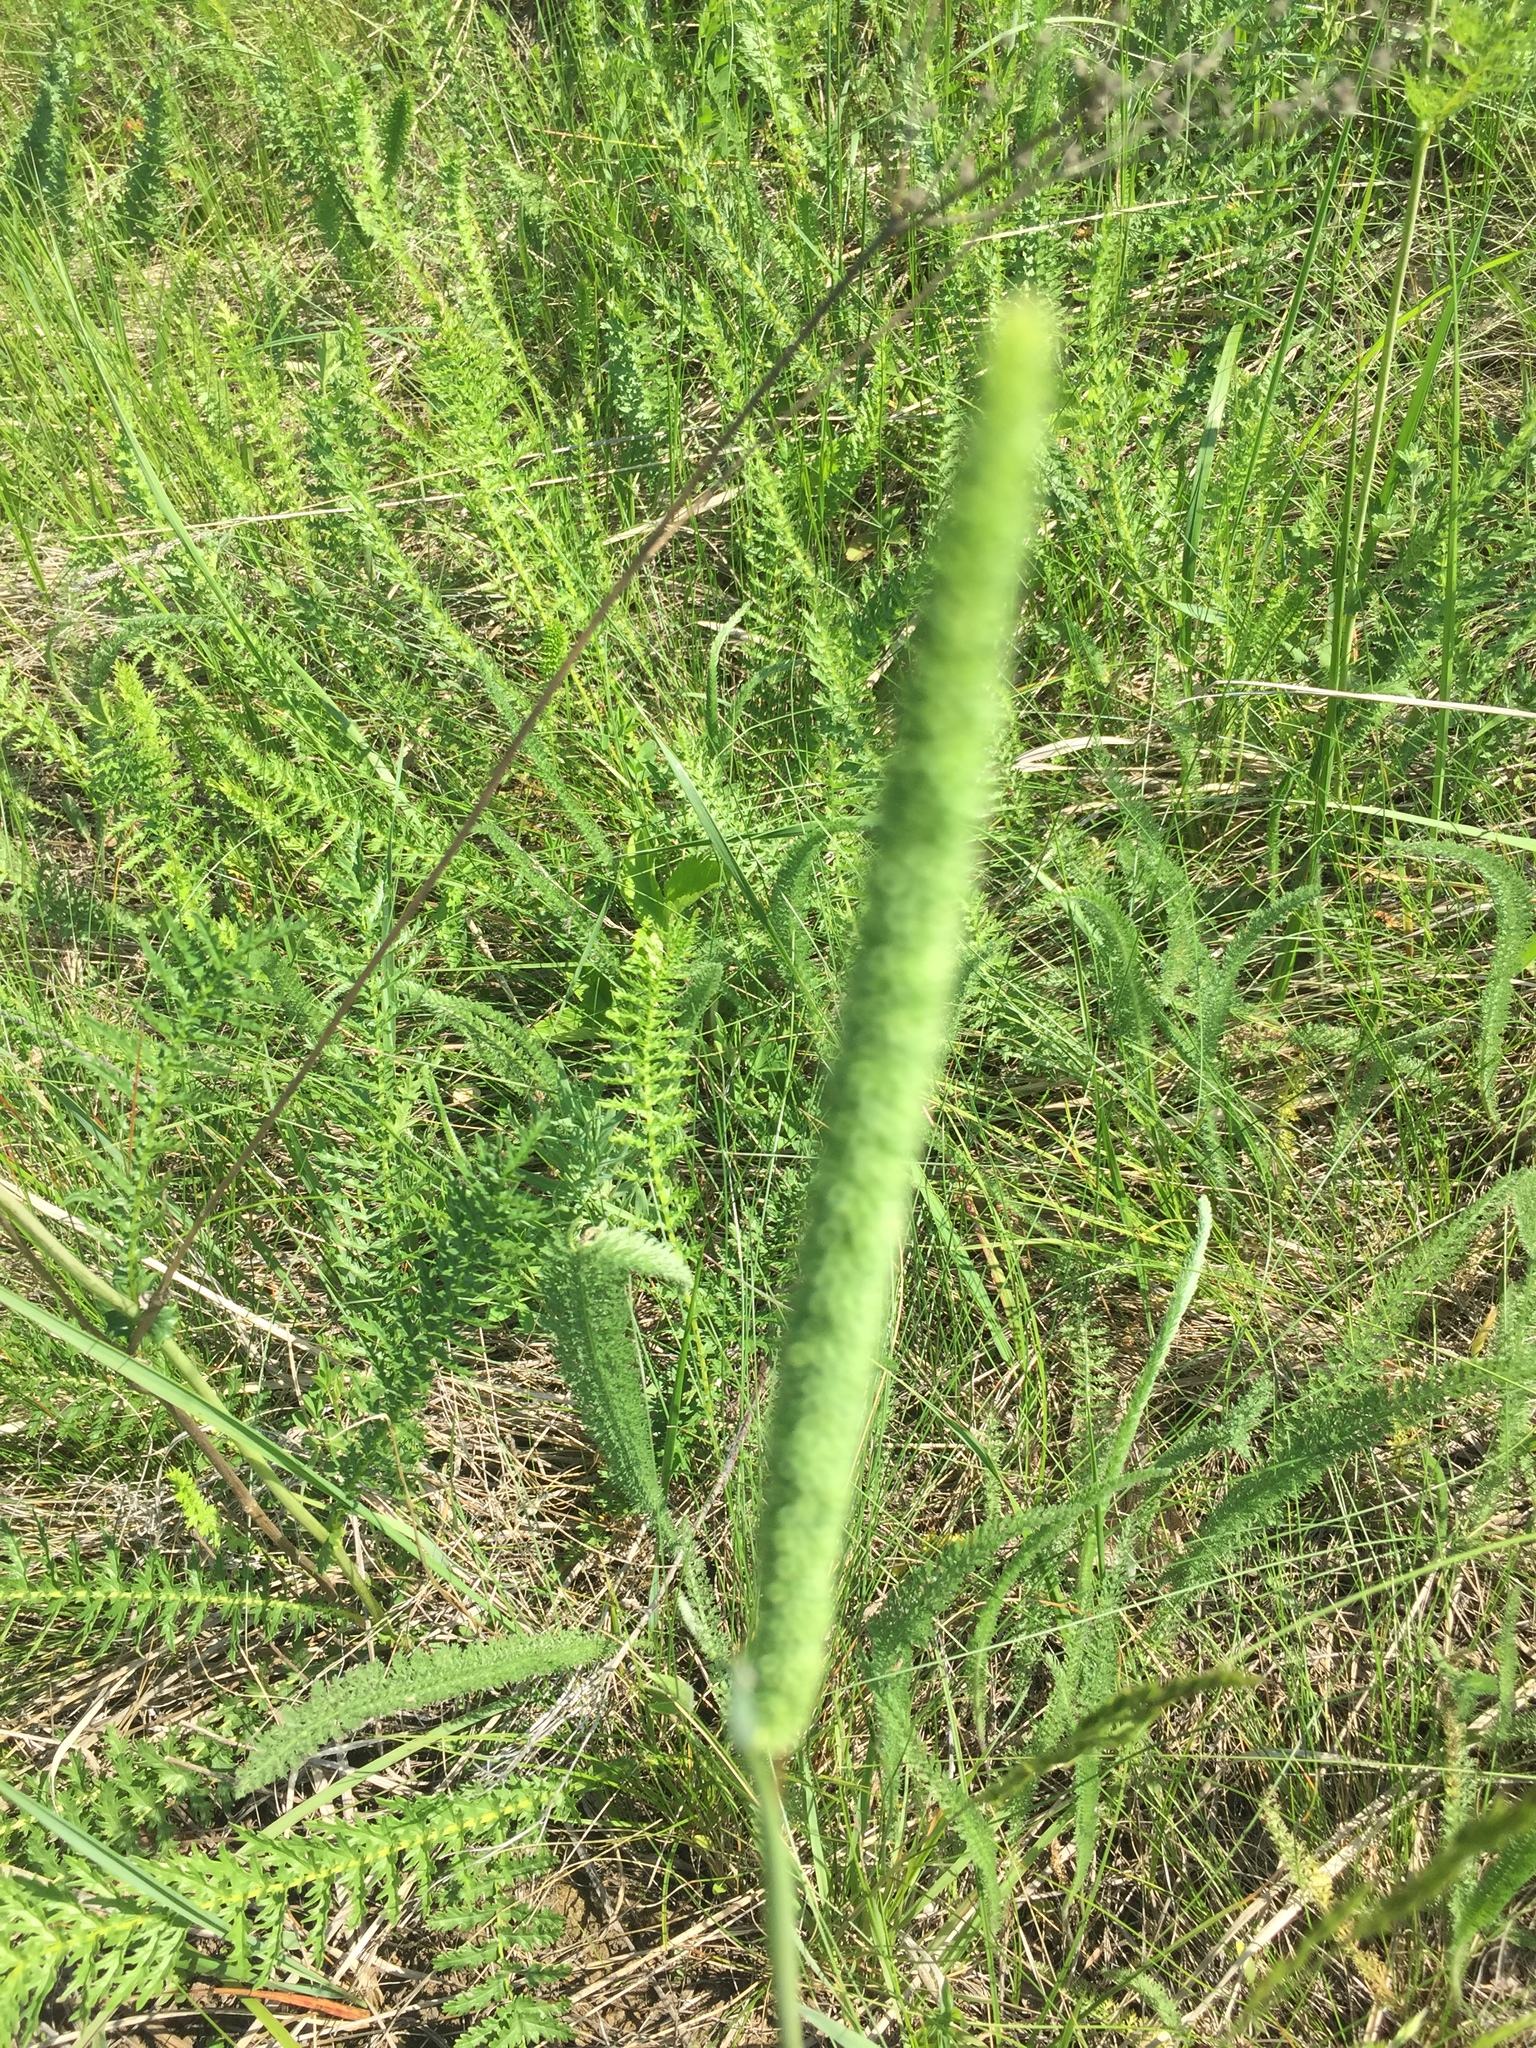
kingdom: Plantae
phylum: Tracheophyta
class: Liliopsida
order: Poales
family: Poaceae
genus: Phleum
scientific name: Phleum pratense
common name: Timothy grass
